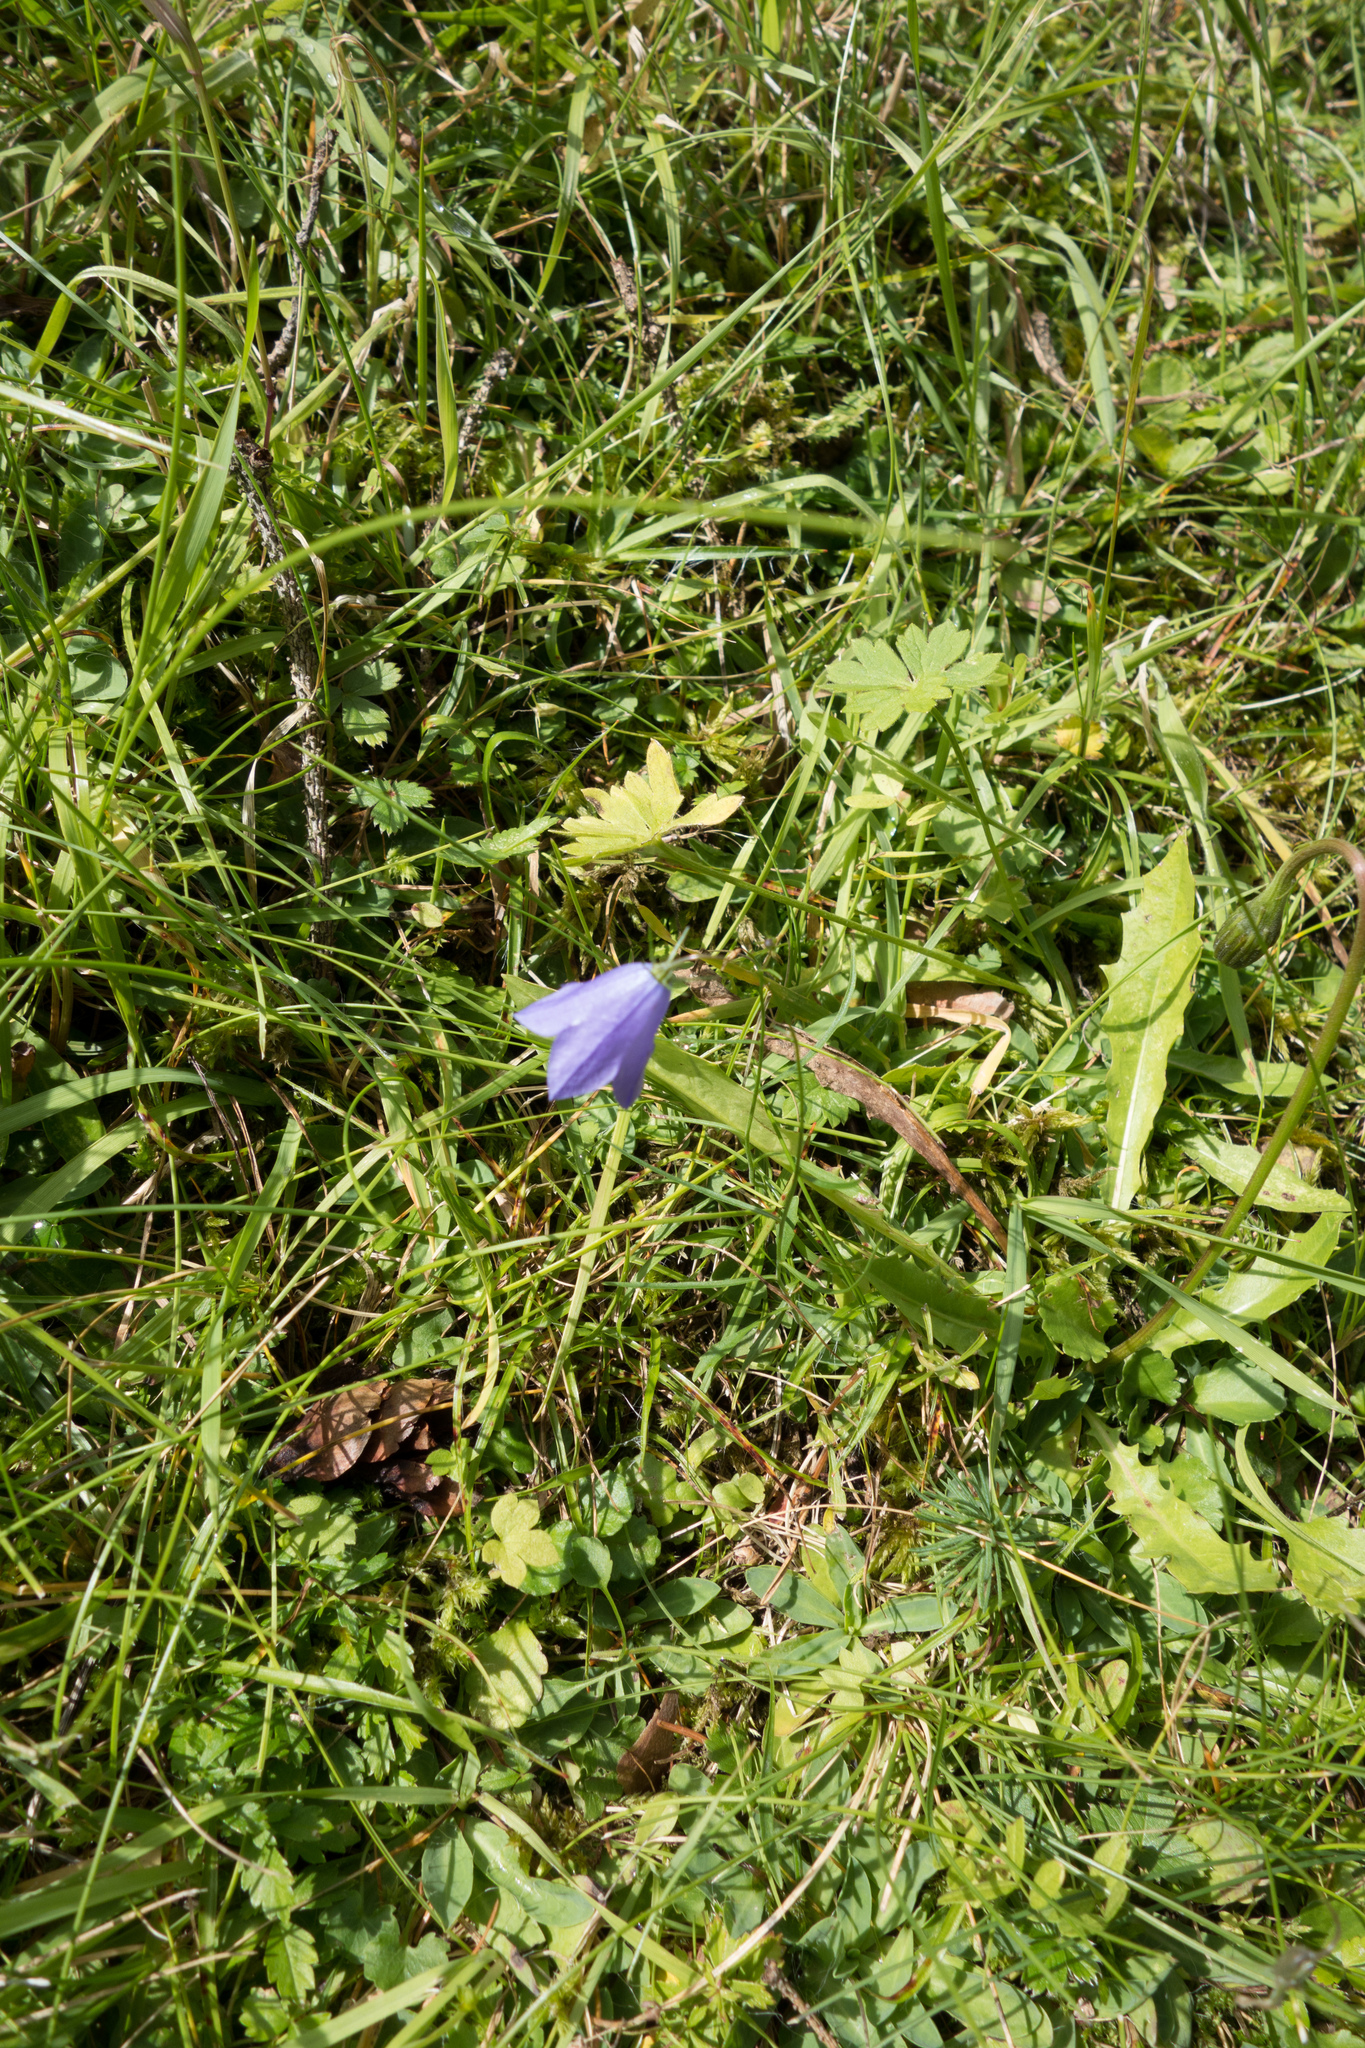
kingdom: Plantae
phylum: Tracheophyta
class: Magnoliopsida
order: Asterales
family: Campanulaceae
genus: Campanula
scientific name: Campanula rotundifolia
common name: Harebell
